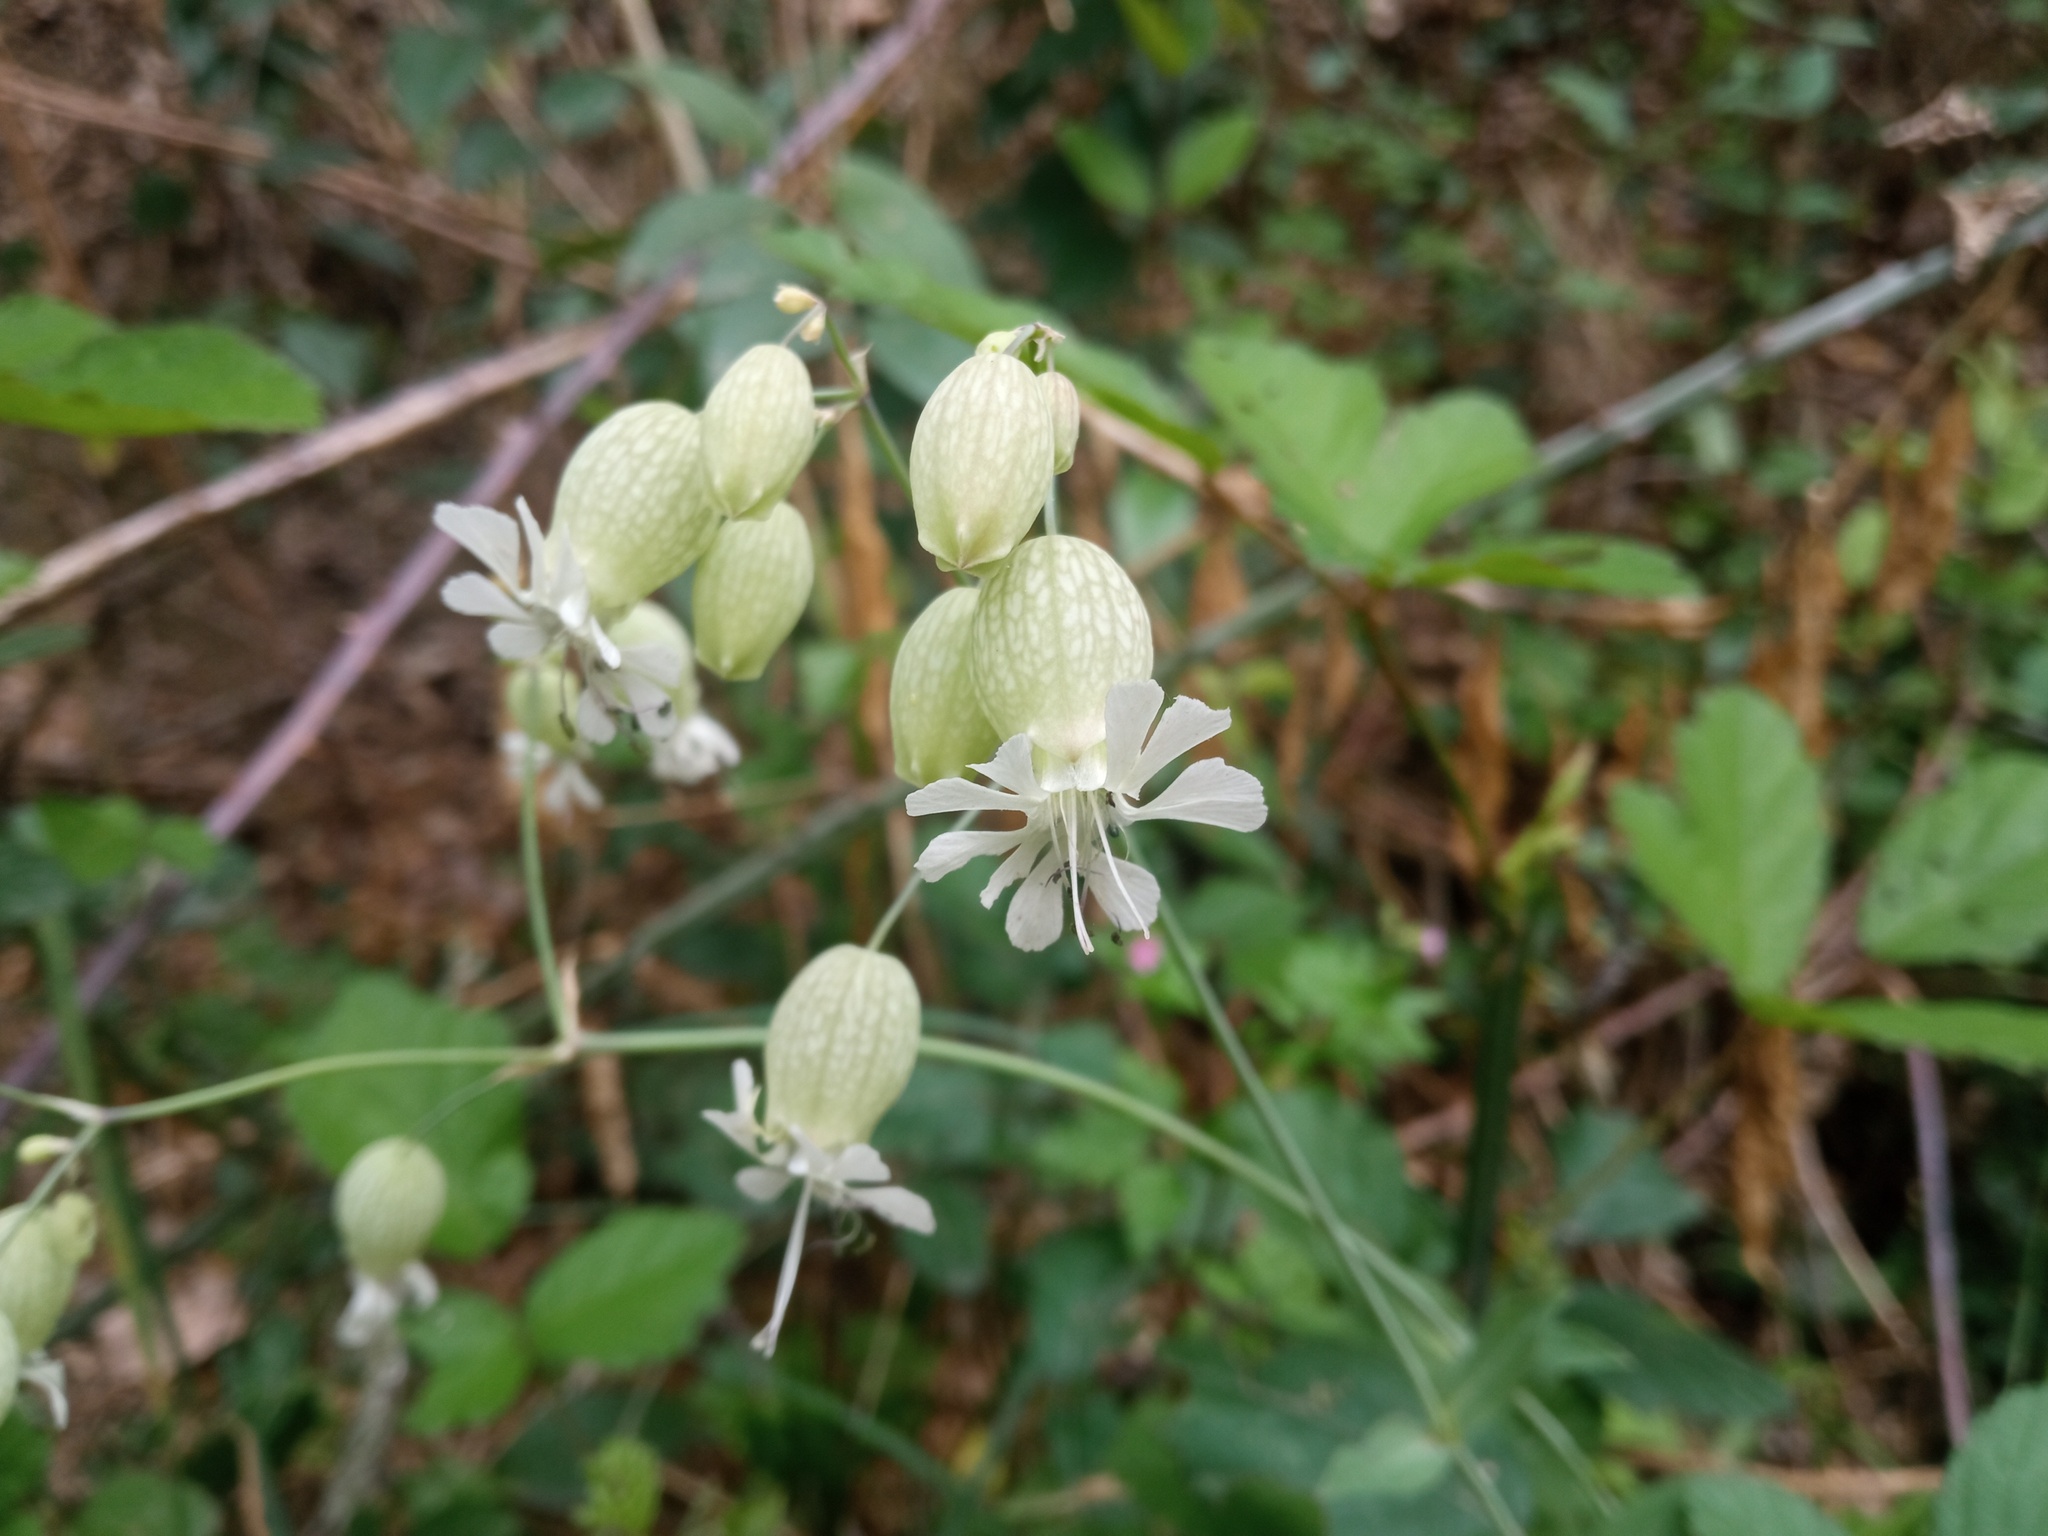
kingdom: Plantae
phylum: Tracheophyta
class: Magnoliopsida
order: Caryophyllales
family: Caryophyllaceae
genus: Silene
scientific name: Silene vulgaris
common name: Bladder campion
